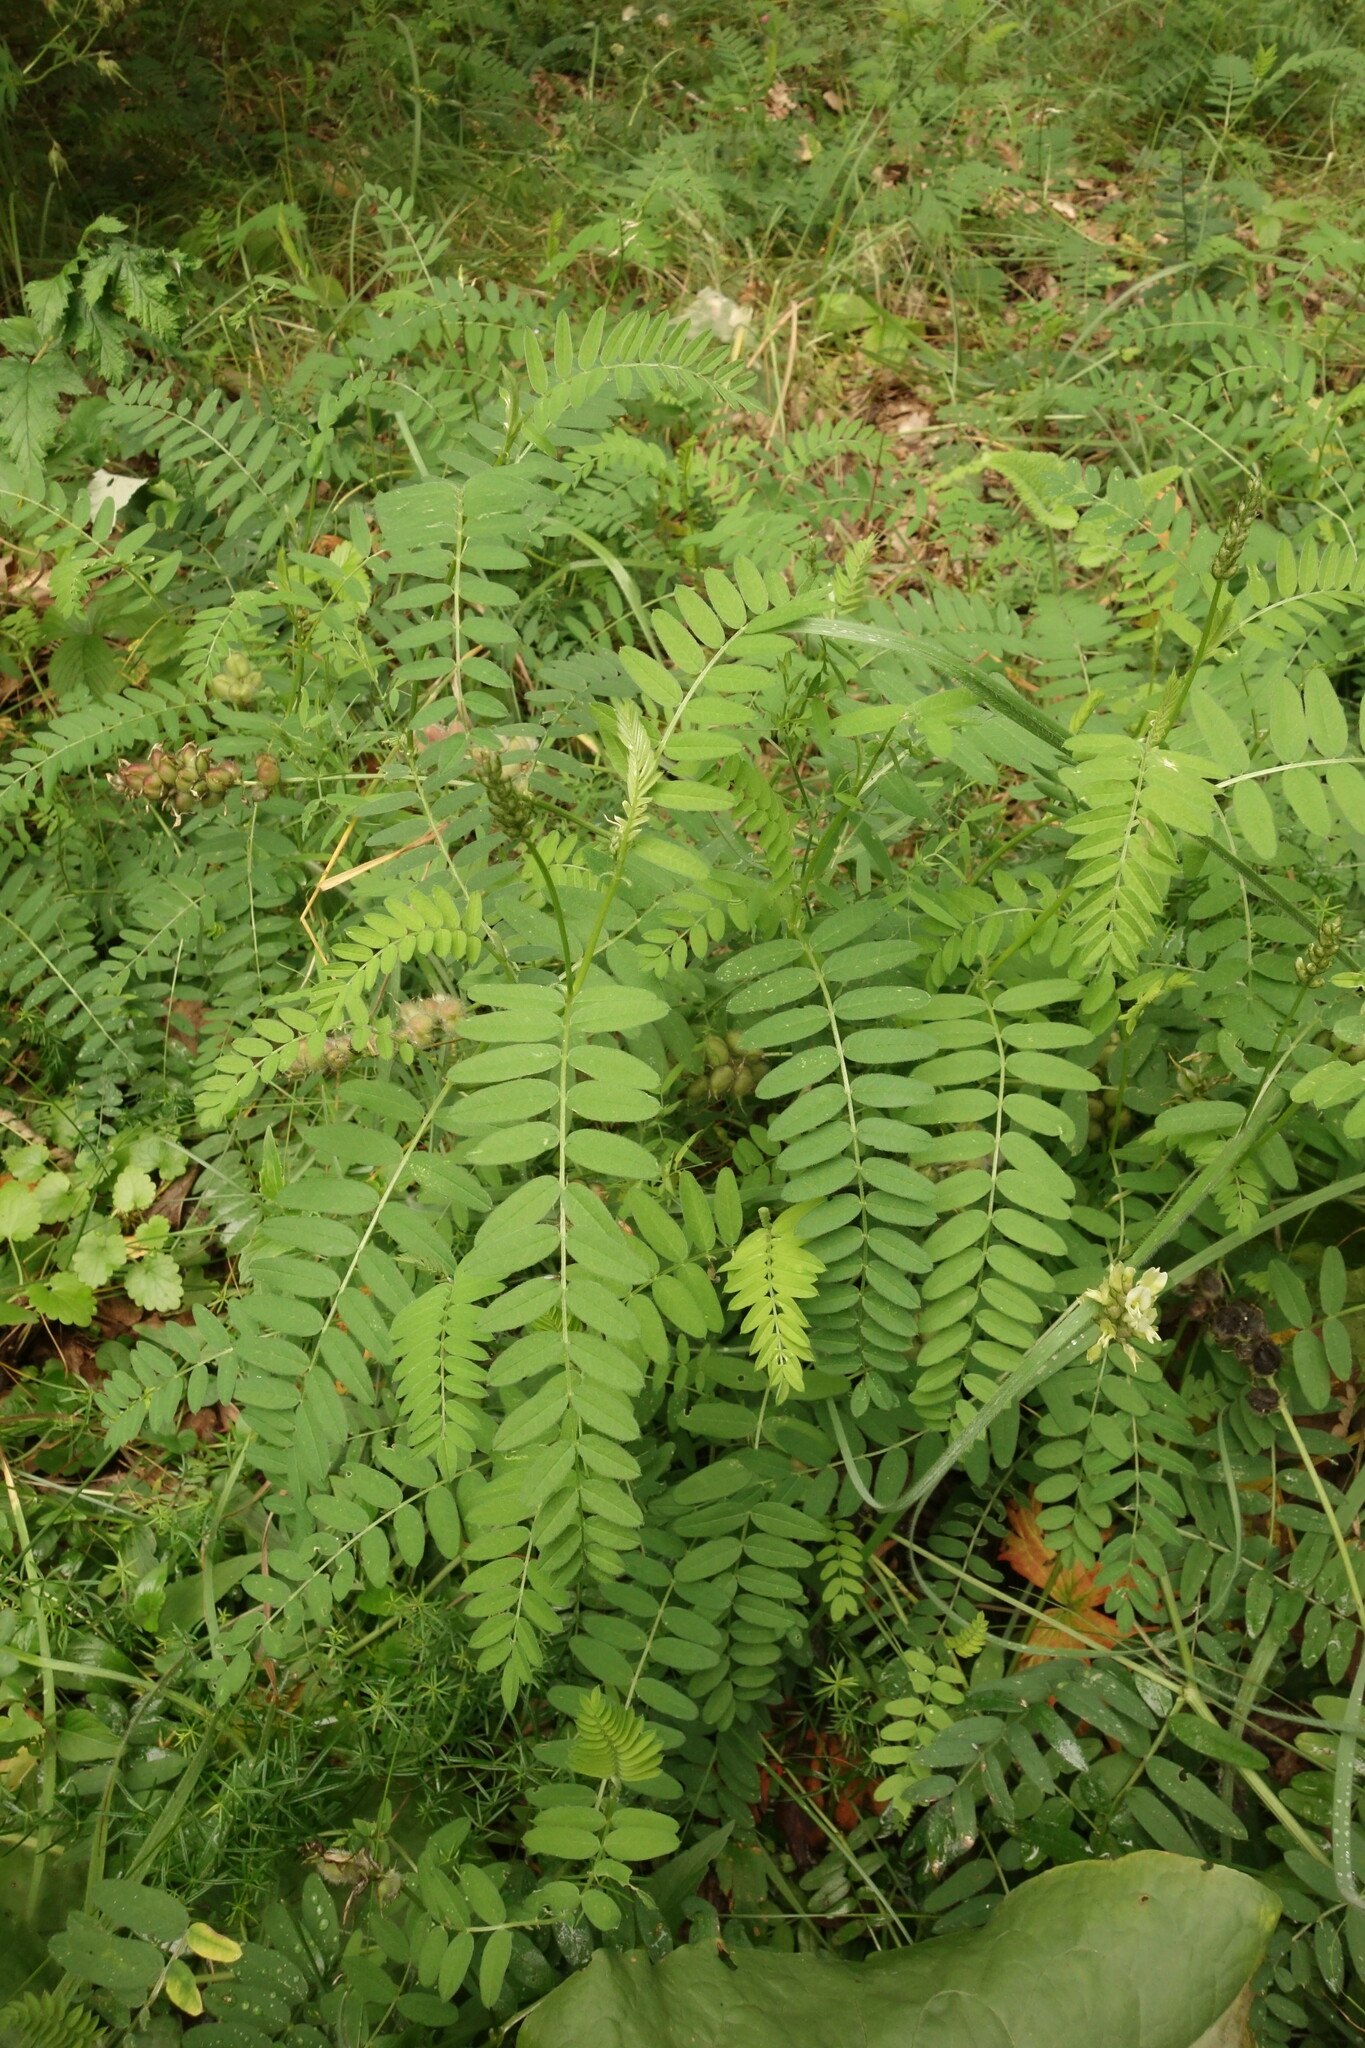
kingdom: Plantae
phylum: Tracheophyta
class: Magnoliopsida
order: Fabales
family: Fabaceae
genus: Astragalus
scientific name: Astragalus cicer
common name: Chick-pea milk-vetch
